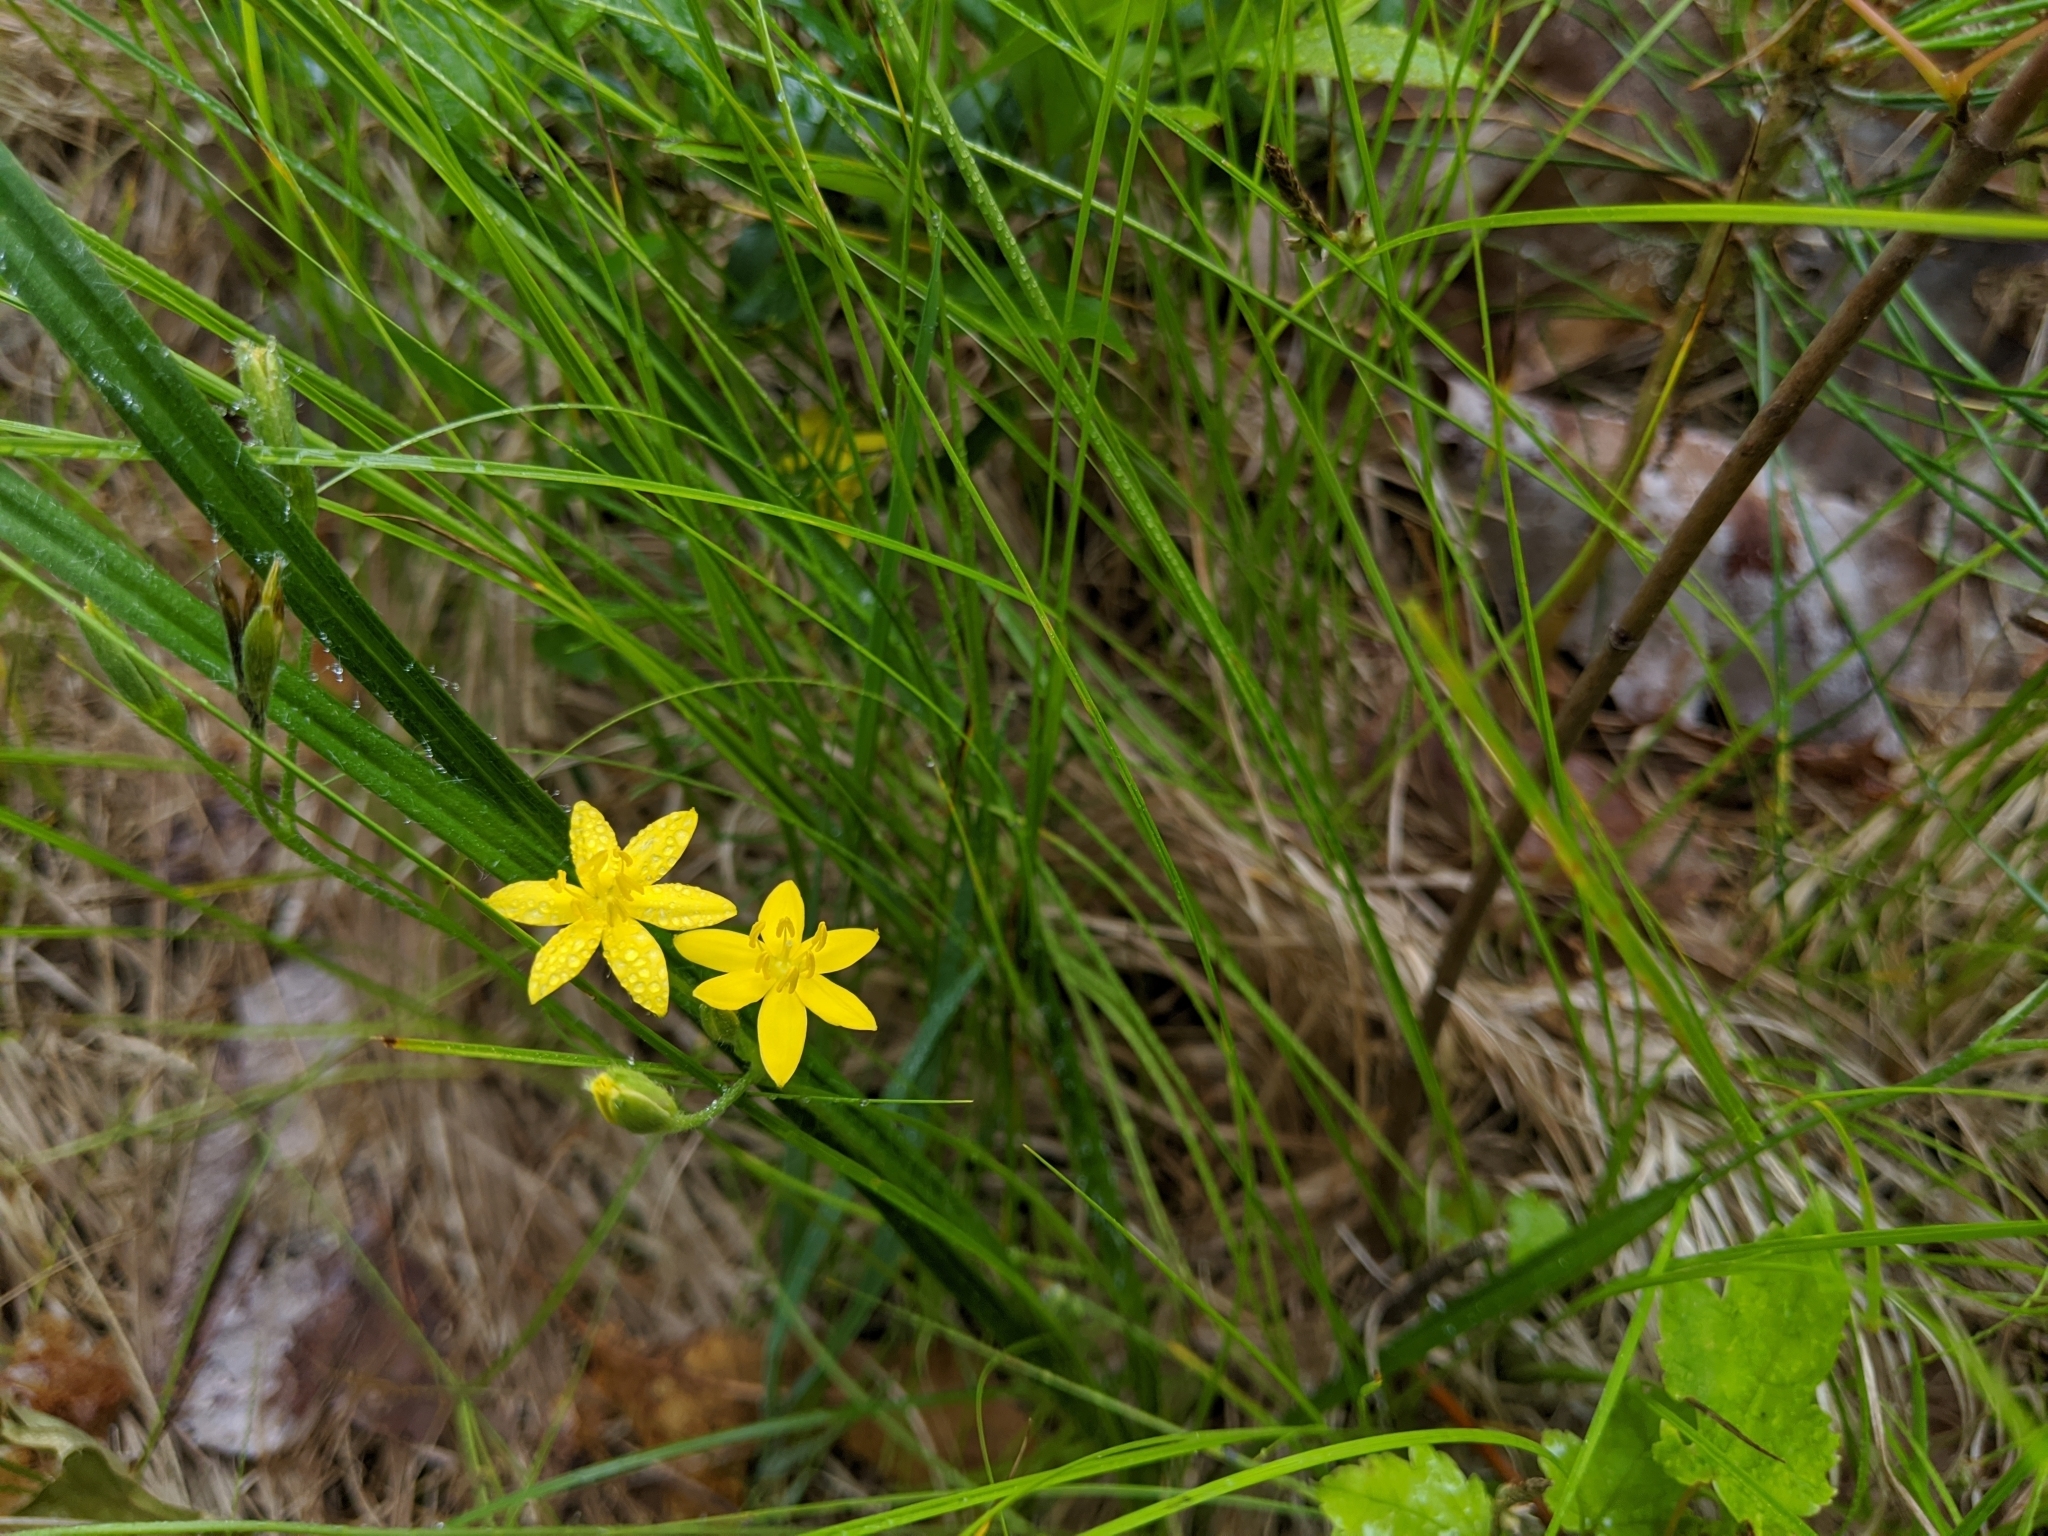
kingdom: Plantae
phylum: Tracheophyta
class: Liliopsida
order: Asparagales
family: Hypoxidaceae
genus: Hypoxis
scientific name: Hypoxis hirsuta
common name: Common goldstar
